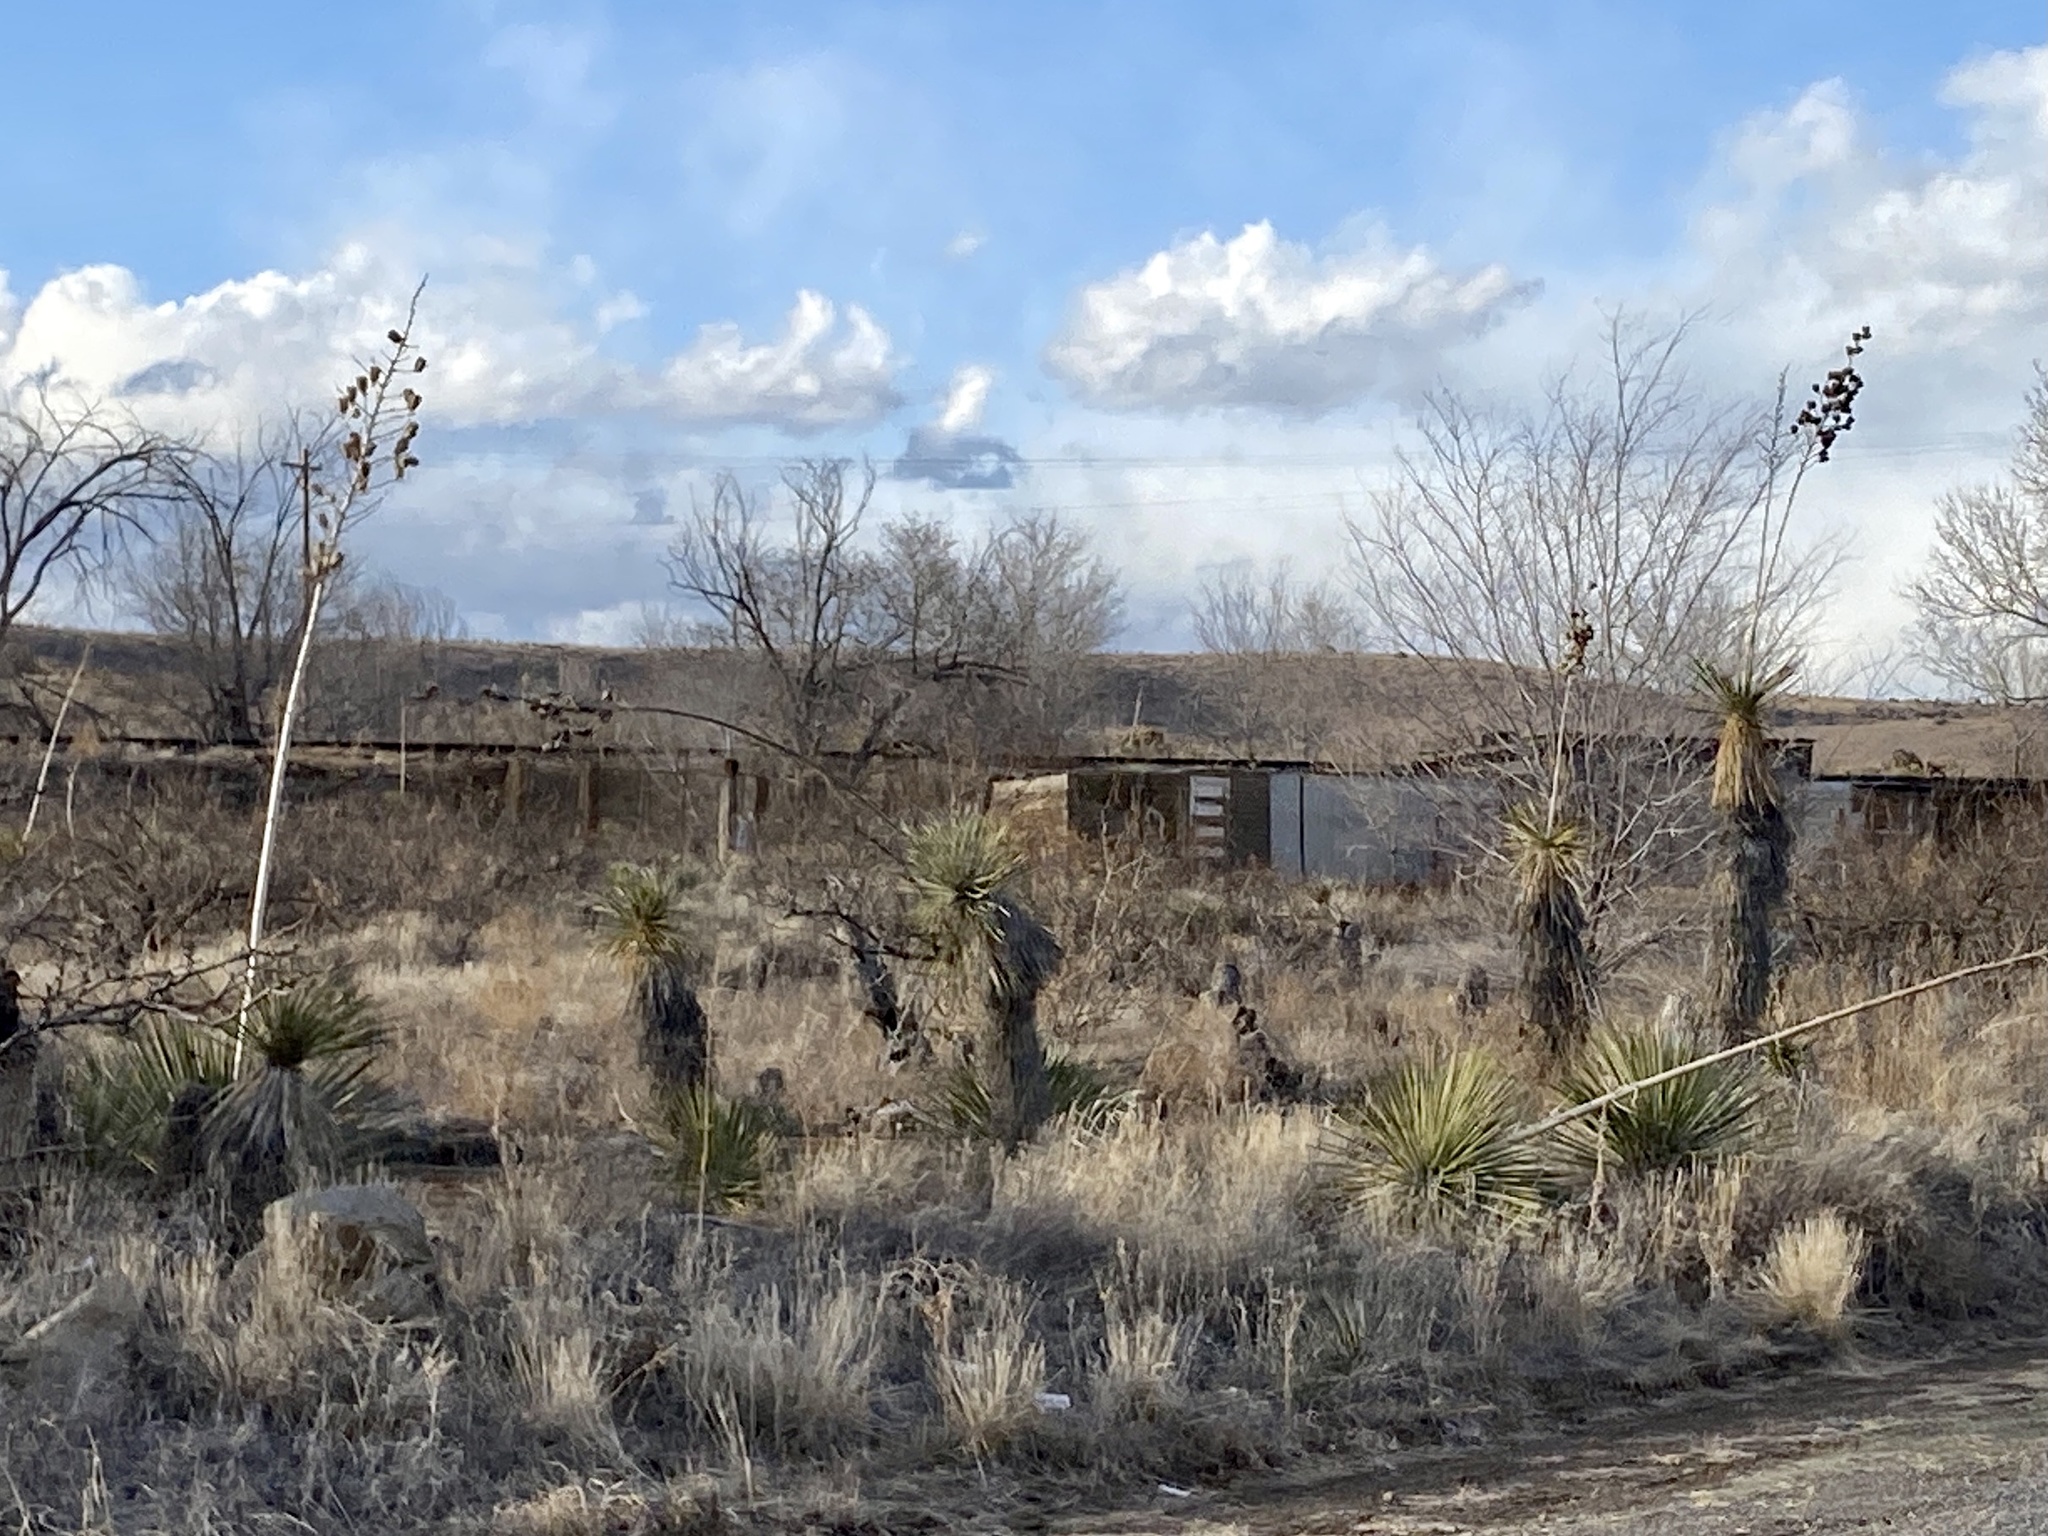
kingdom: Plantae
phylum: Tracheophyta
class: Liliopsida
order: Asparagales
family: Asparagaceae
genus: Yucca
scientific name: Yucca elata
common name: Palmella
